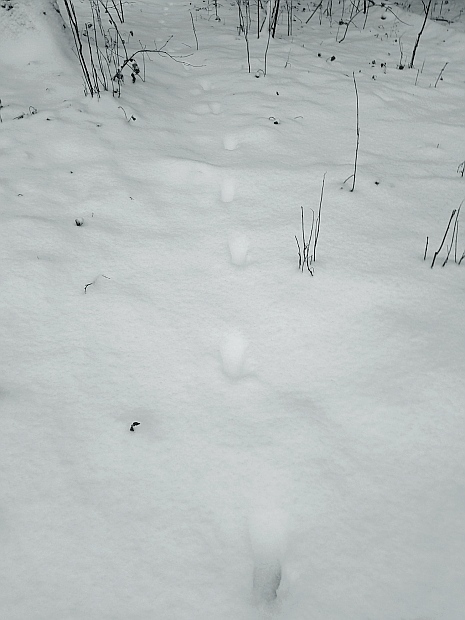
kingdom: Animalia
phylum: Chordata
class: Mammalia
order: Carnivora
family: Canidae
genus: Vulpes
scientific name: Vulpes vulpes
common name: Red fox
